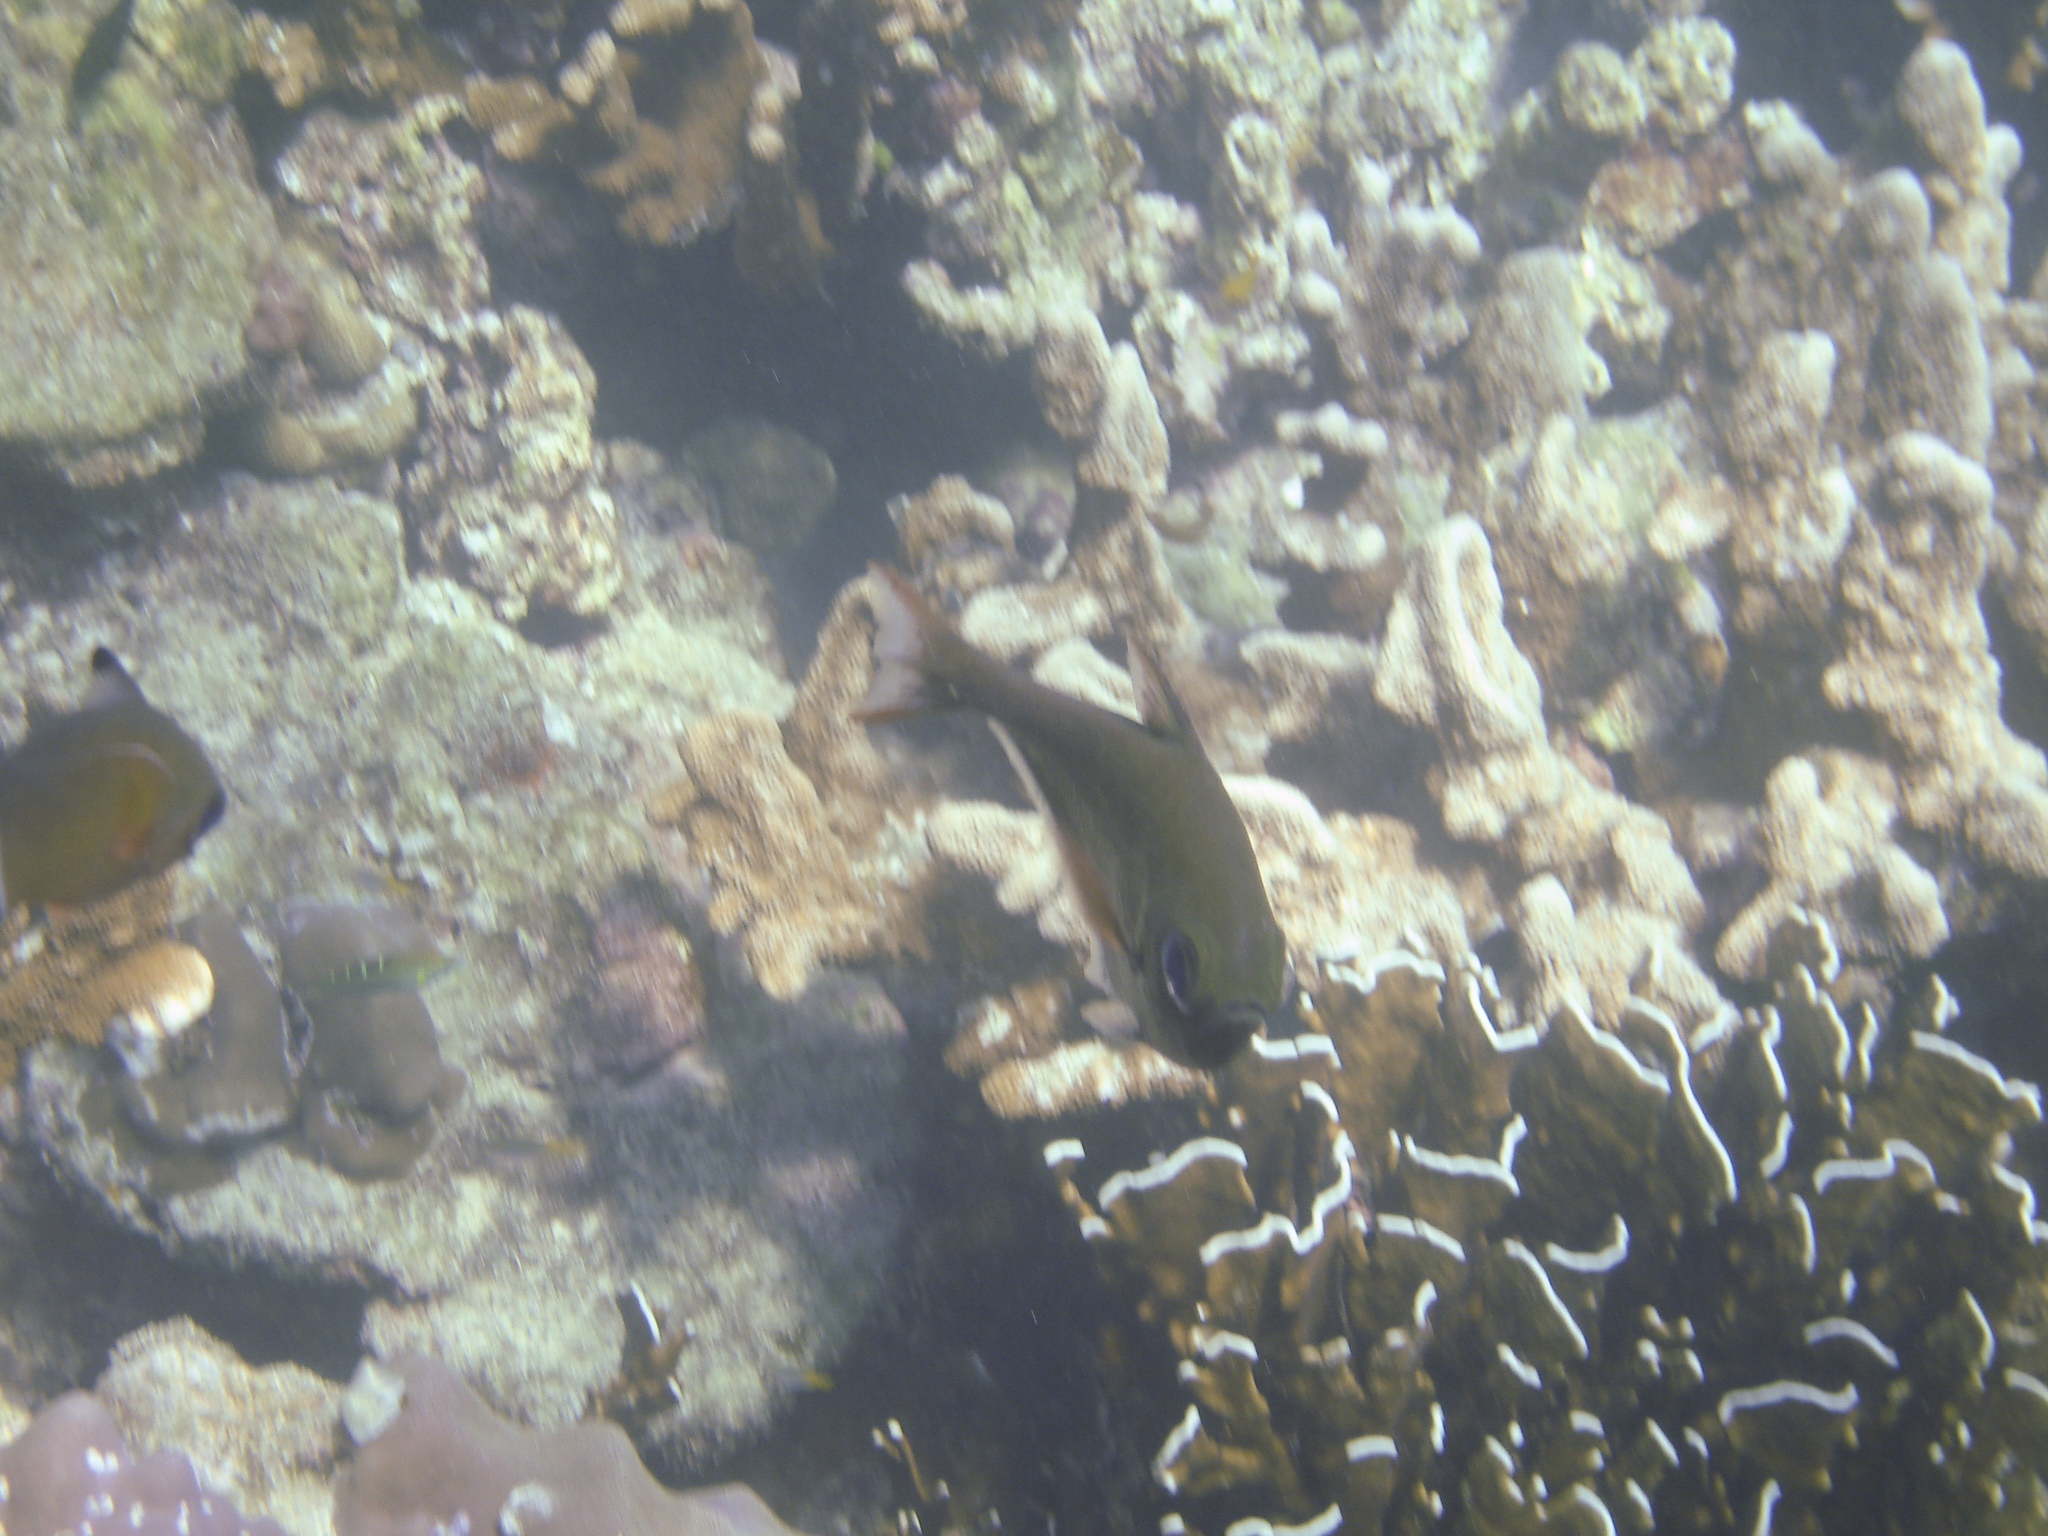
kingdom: Animalia
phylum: Chordata
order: Perciformes
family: Pempheridae
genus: Pempheris
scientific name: Pempheris adusta
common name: Curved bullseye
